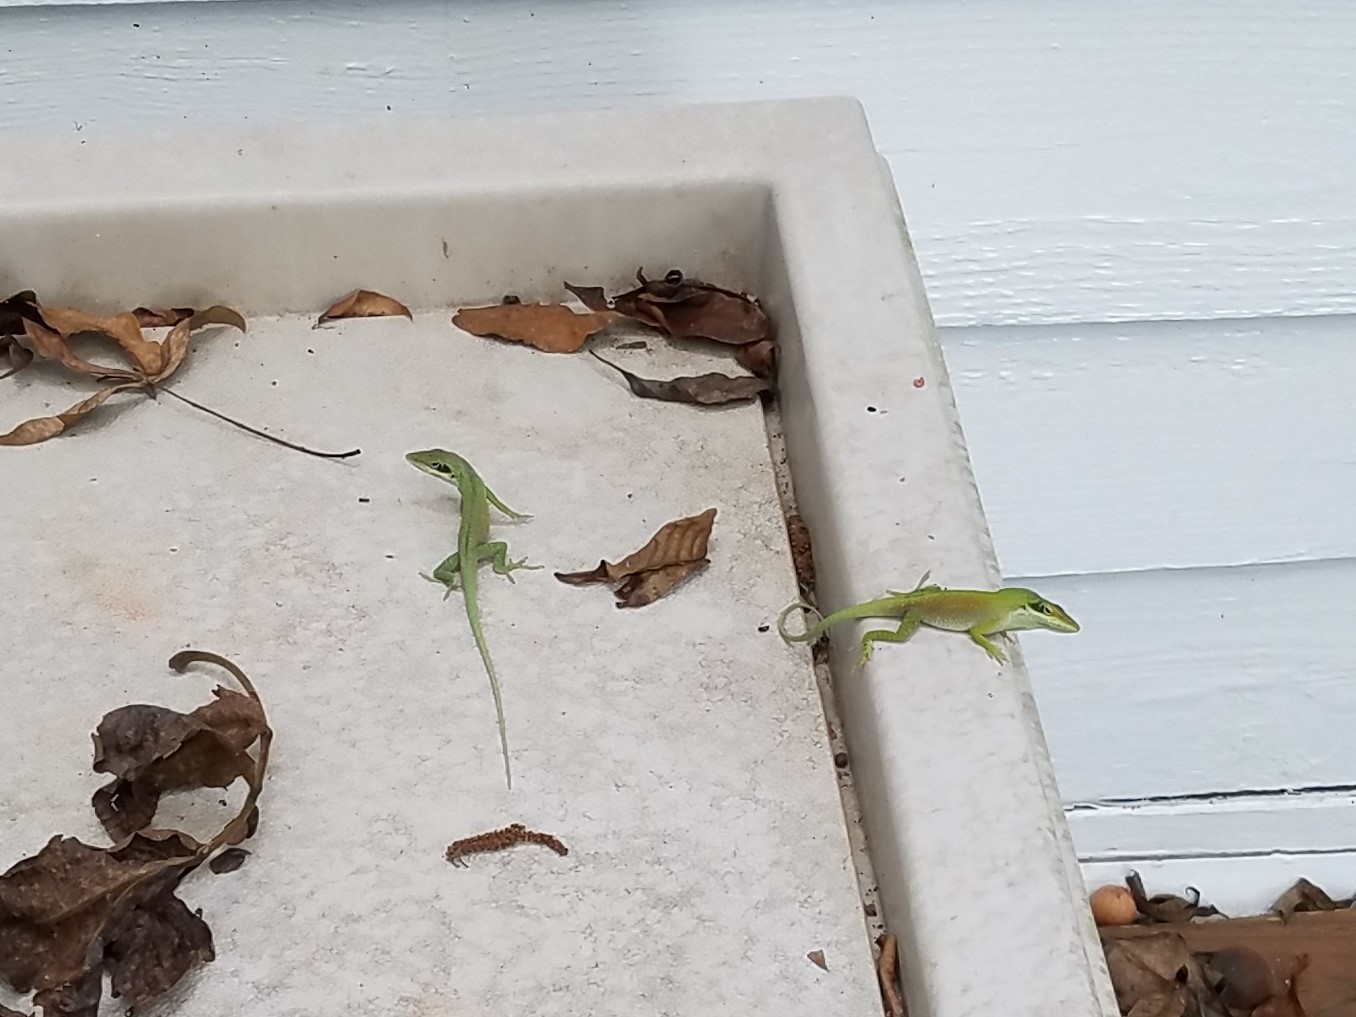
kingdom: Animalia
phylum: Chordata
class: Squamata
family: Dactyloidae
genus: Anolis
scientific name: Anolis carolinensis
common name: Green anole
